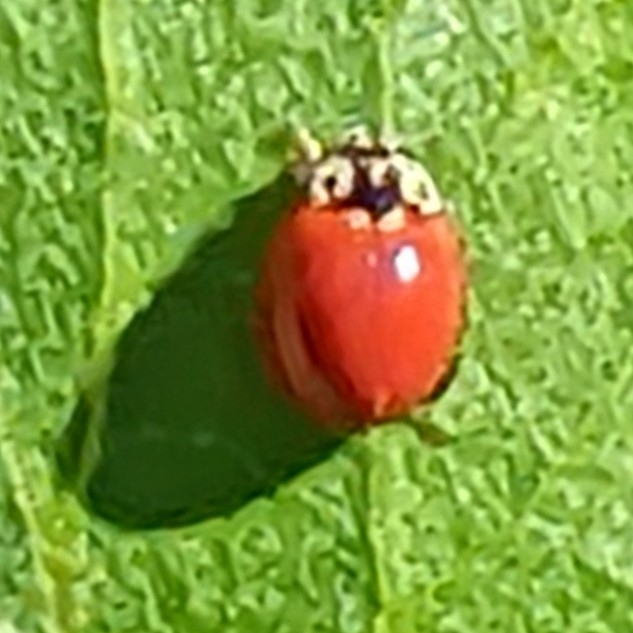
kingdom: Animalia
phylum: Arthropoda
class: Insecta
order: Coleoptera
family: Coccinellidae
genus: Cycloneda
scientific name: Cycloneda polita
